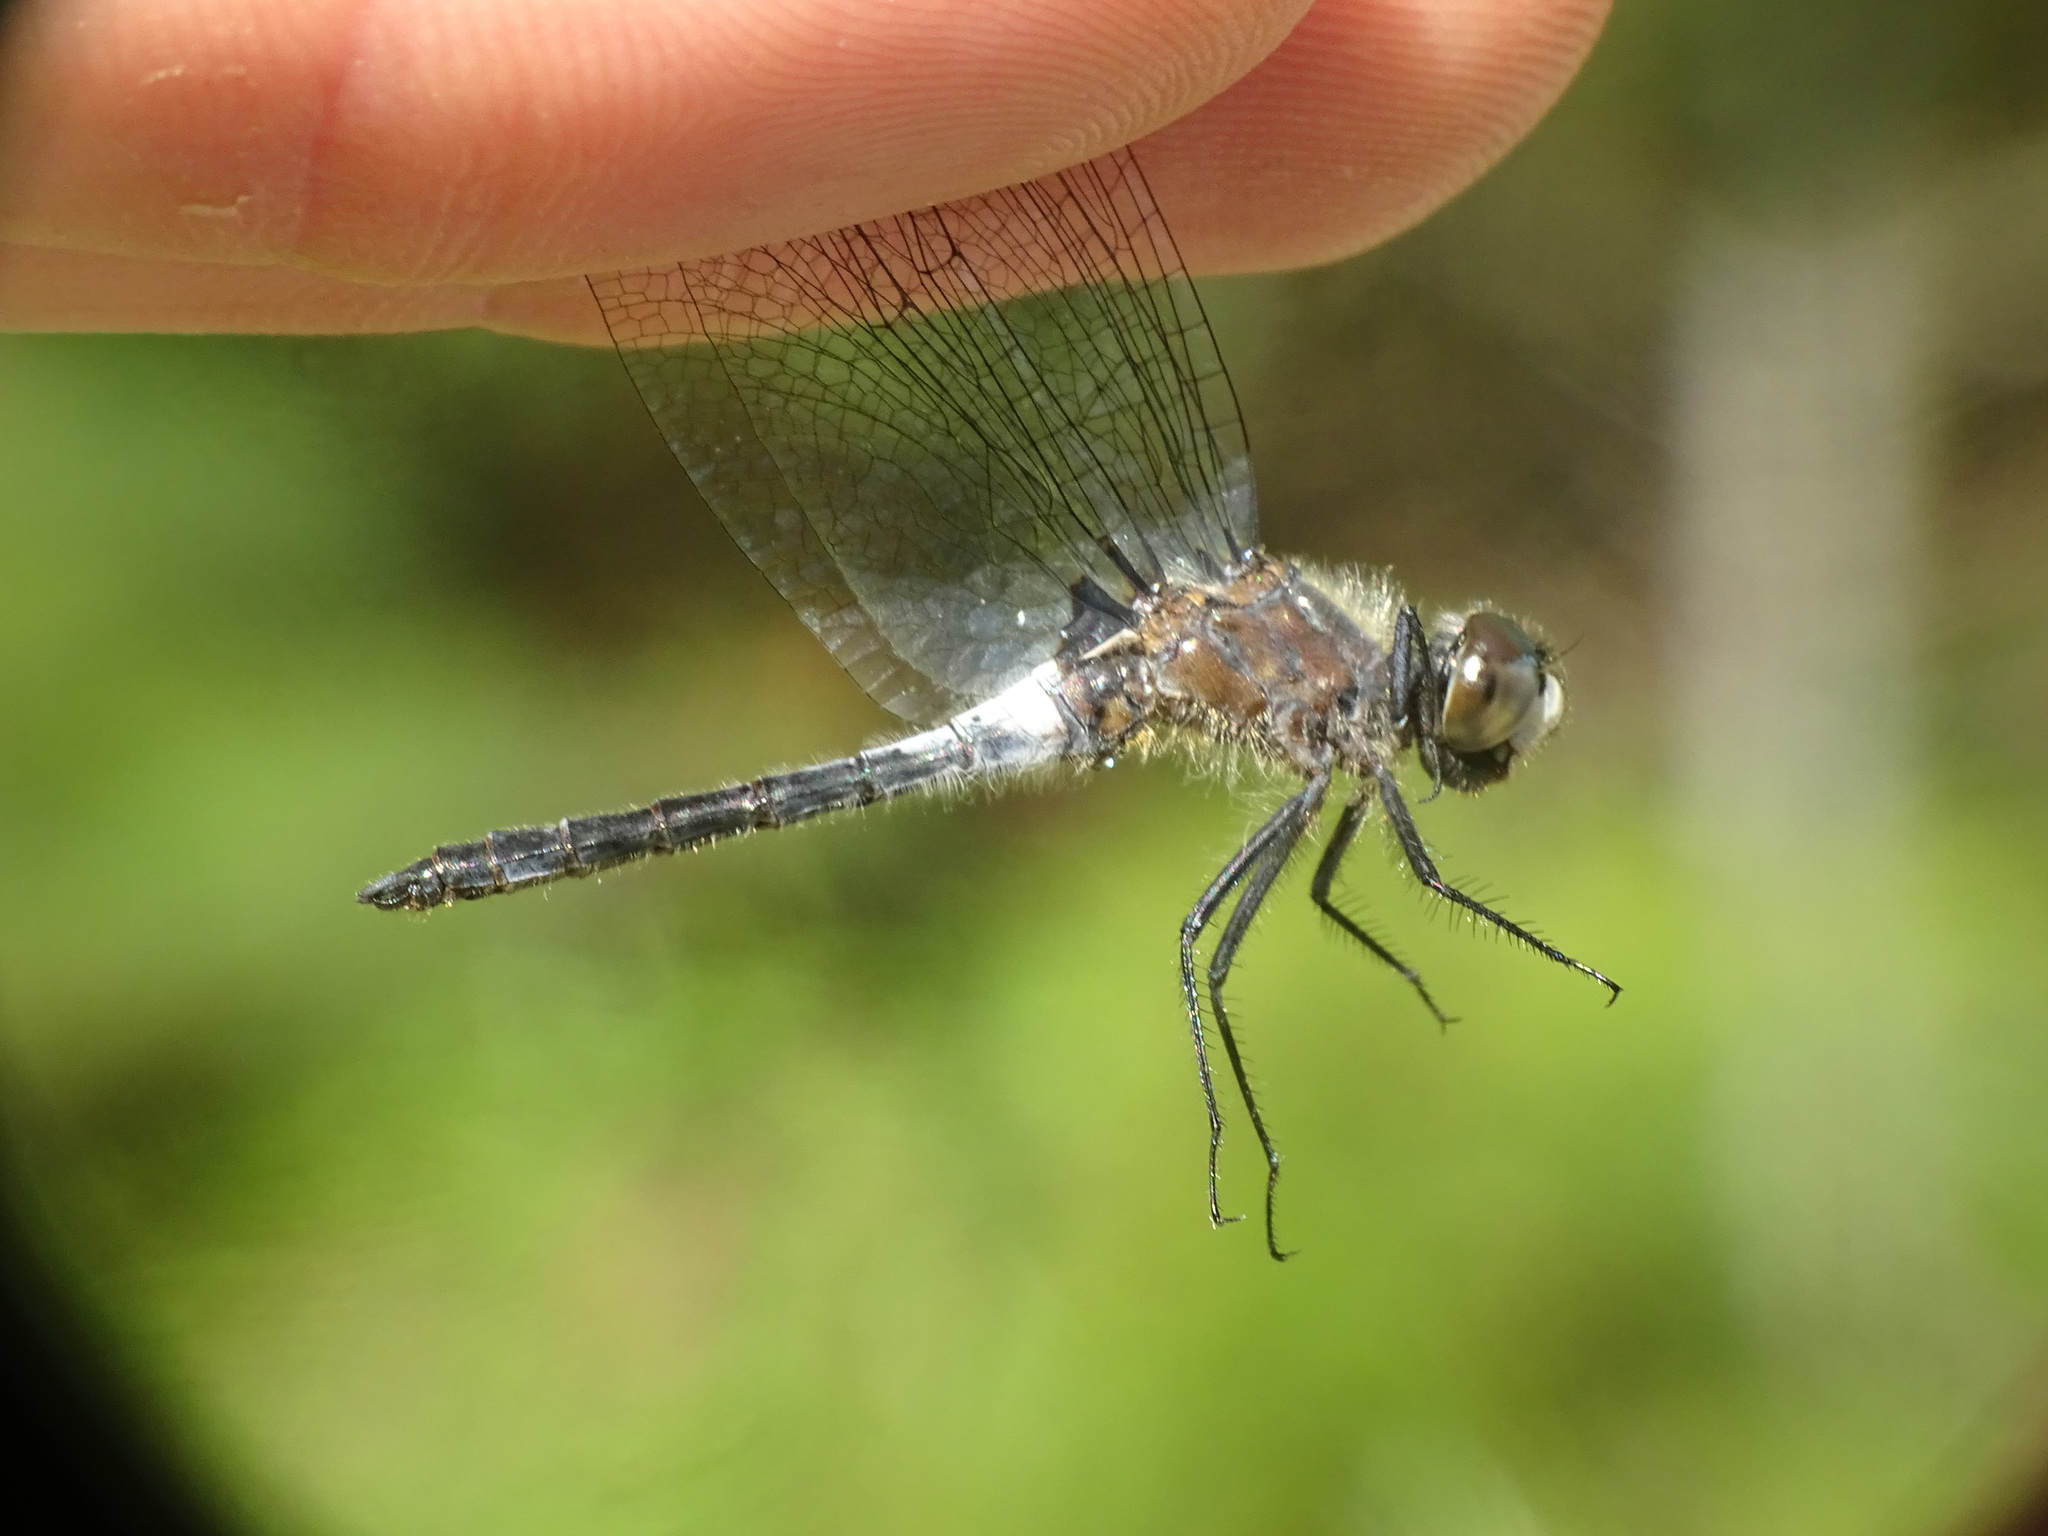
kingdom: Animalia
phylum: Arthropoda
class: Insecta
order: Odonata
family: Libellulidae
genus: Leucorrhinia
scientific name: Leucorrhinia frigida
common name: Frosted whiteface
